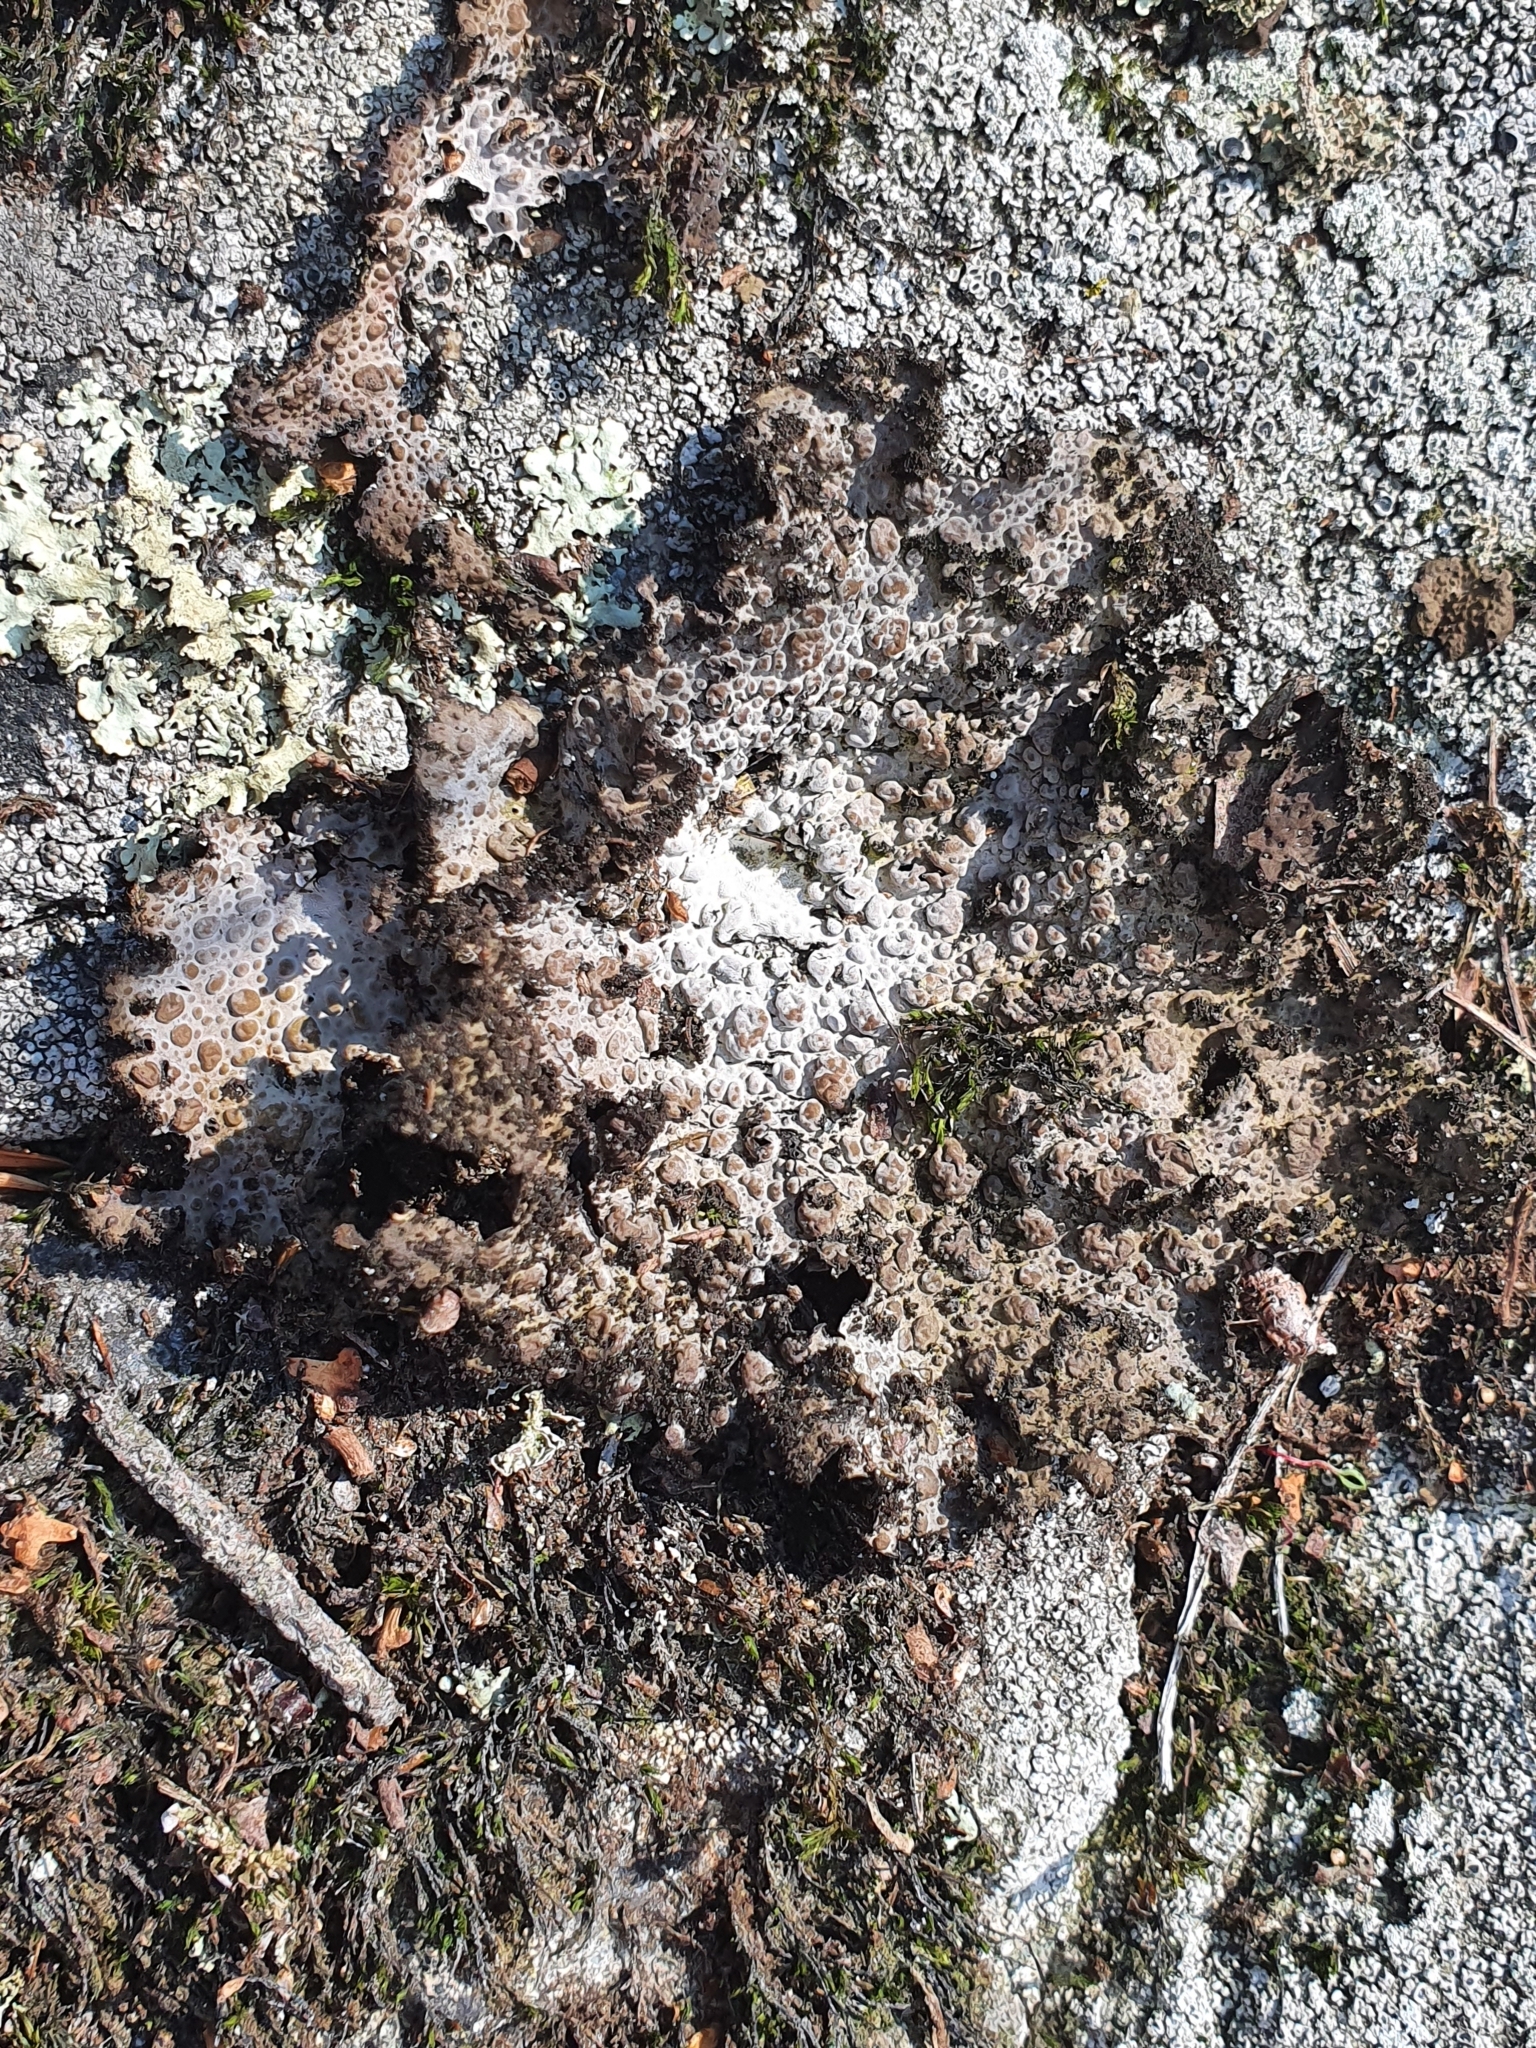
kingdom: Fungi
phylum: Ascomycota
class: Lecanoromycetes
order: Umbilicariales
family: Umbilicariaceae
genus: Lasallia
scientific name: Lasallia pustulata
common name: Blistered toadskin lichen
